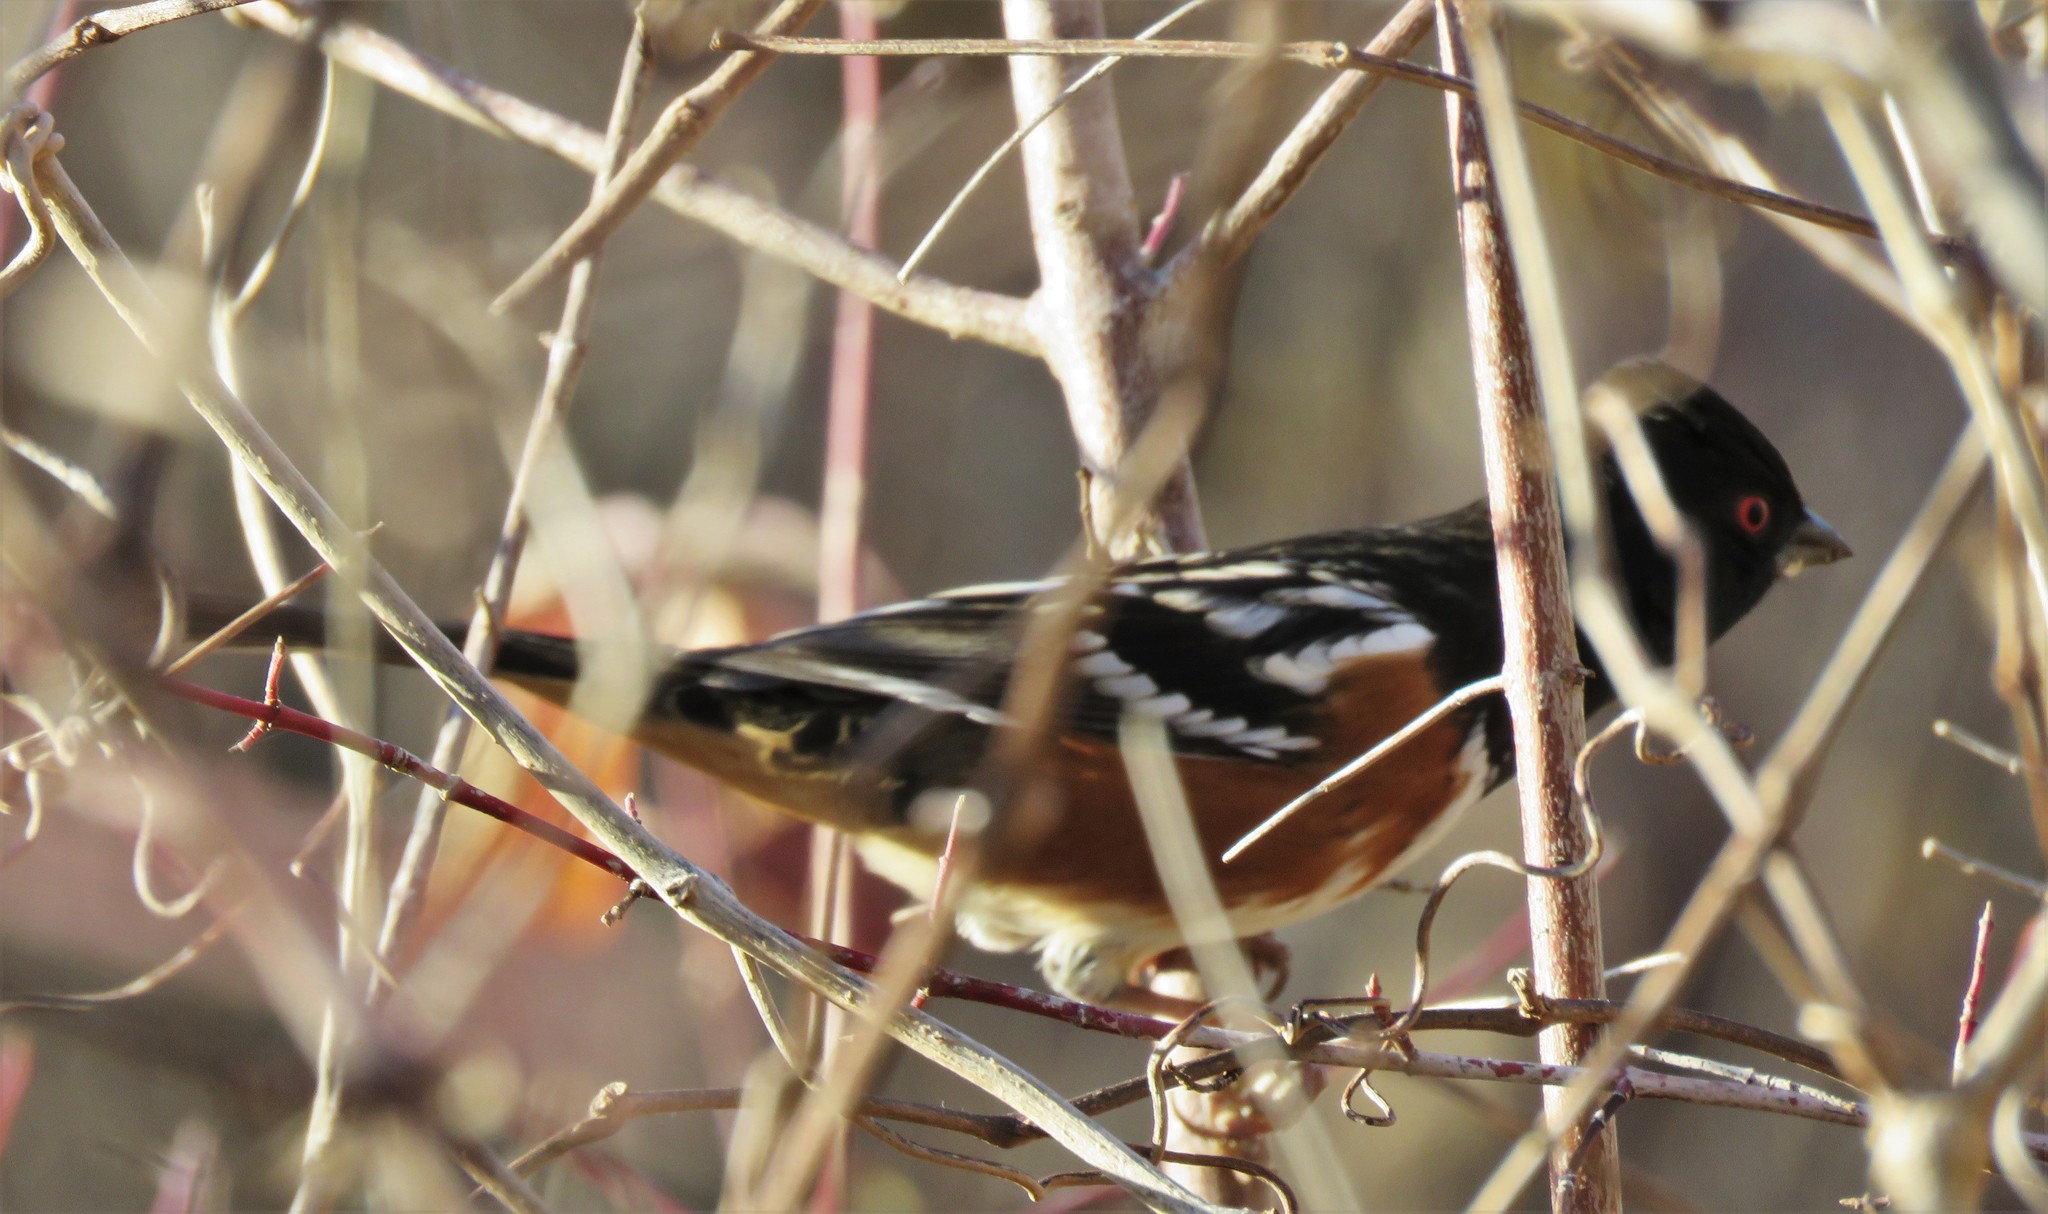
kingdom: Animalia
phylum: Chordata
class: Aves
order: Passeriformes
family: Passerellidae
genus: Pipilo
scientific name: Pipilo maculatus
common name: Spotted towhee
